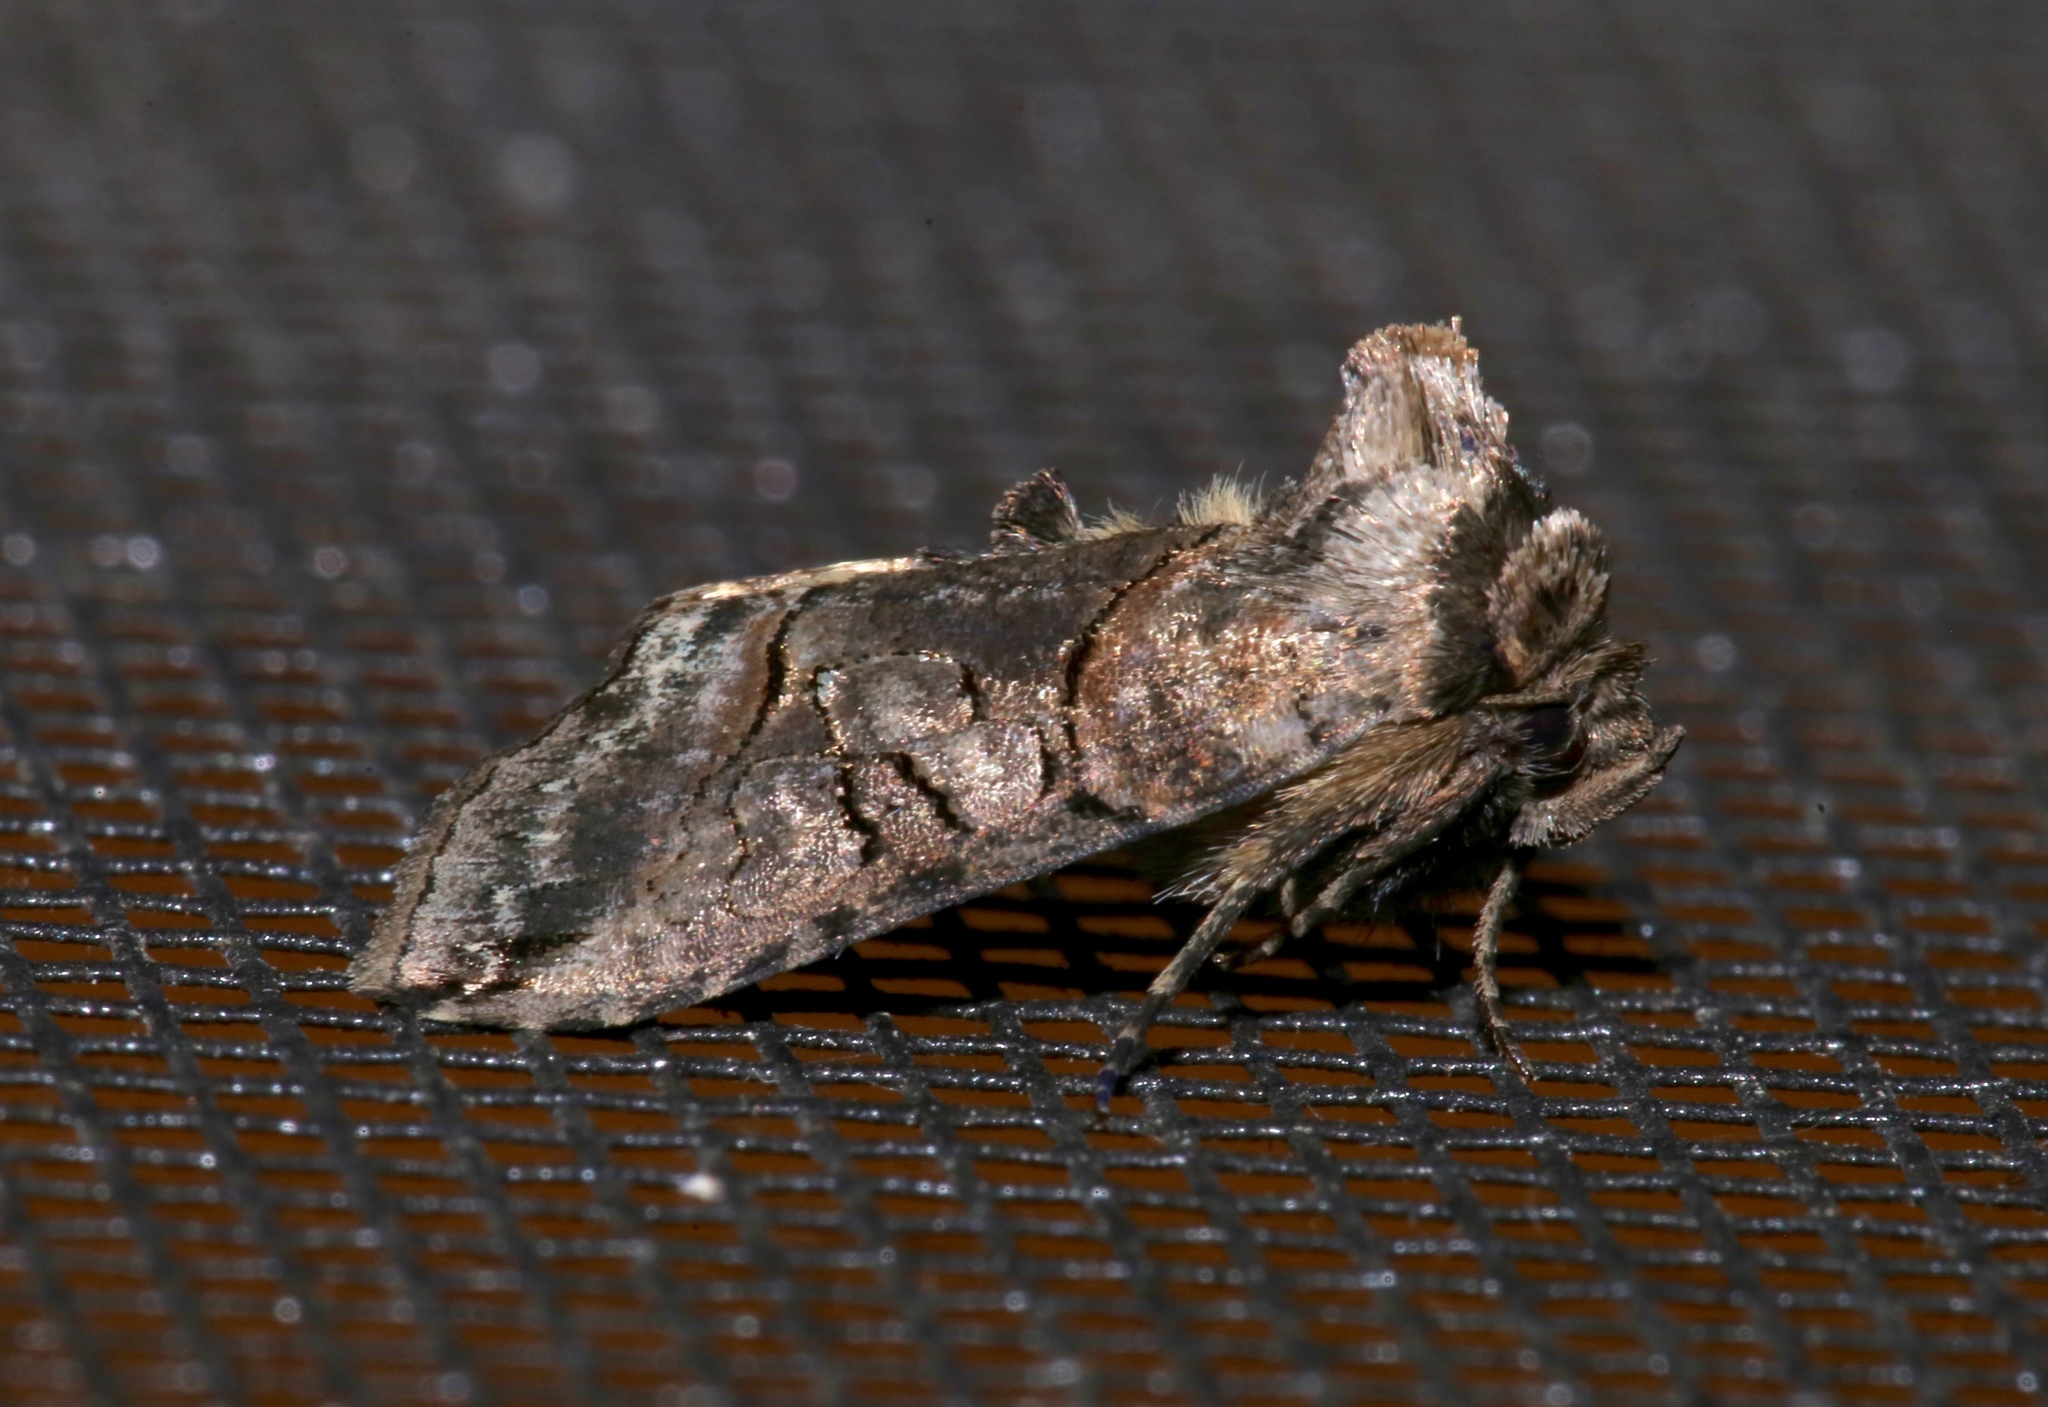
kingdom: Animalia
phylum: Arthropoda
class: Insecta
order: Lepidoptera
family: Noctuidae
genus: Abrostola
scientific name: Abrostola urentis
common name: Spectacled nettle moth
